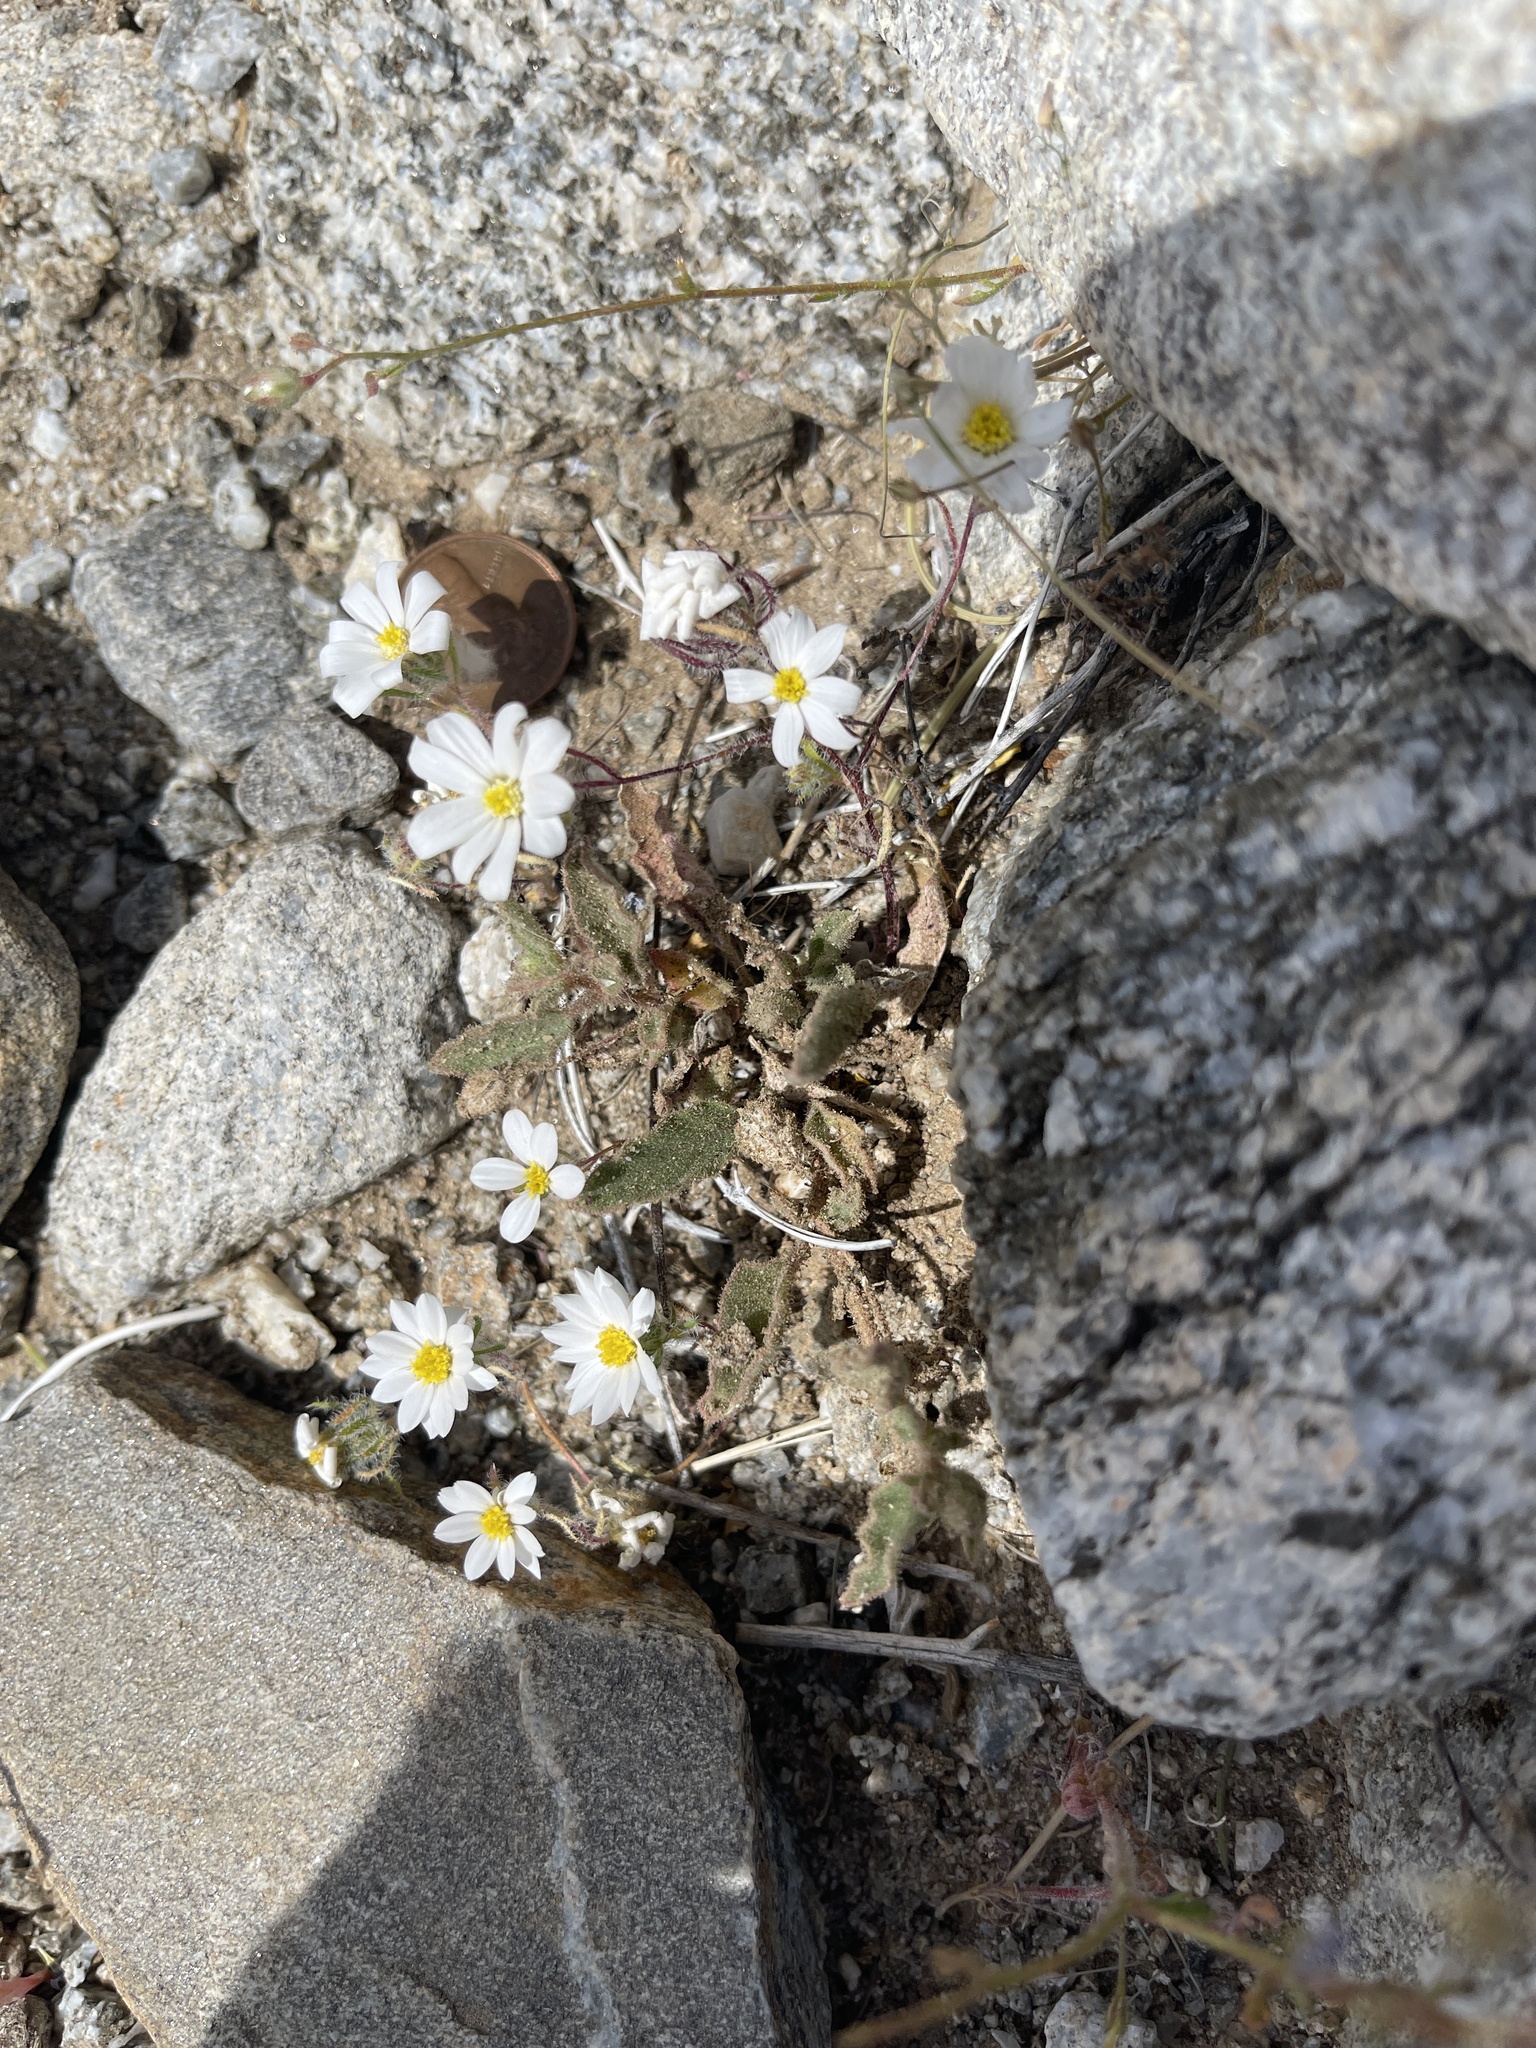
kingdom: Plantae
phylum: Tracheophyta
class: Magnoliopsida
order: Asterales
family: Asteraceae
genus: Monoptilon
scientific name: Monoptilon bellioides
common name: Bristly desertstar
